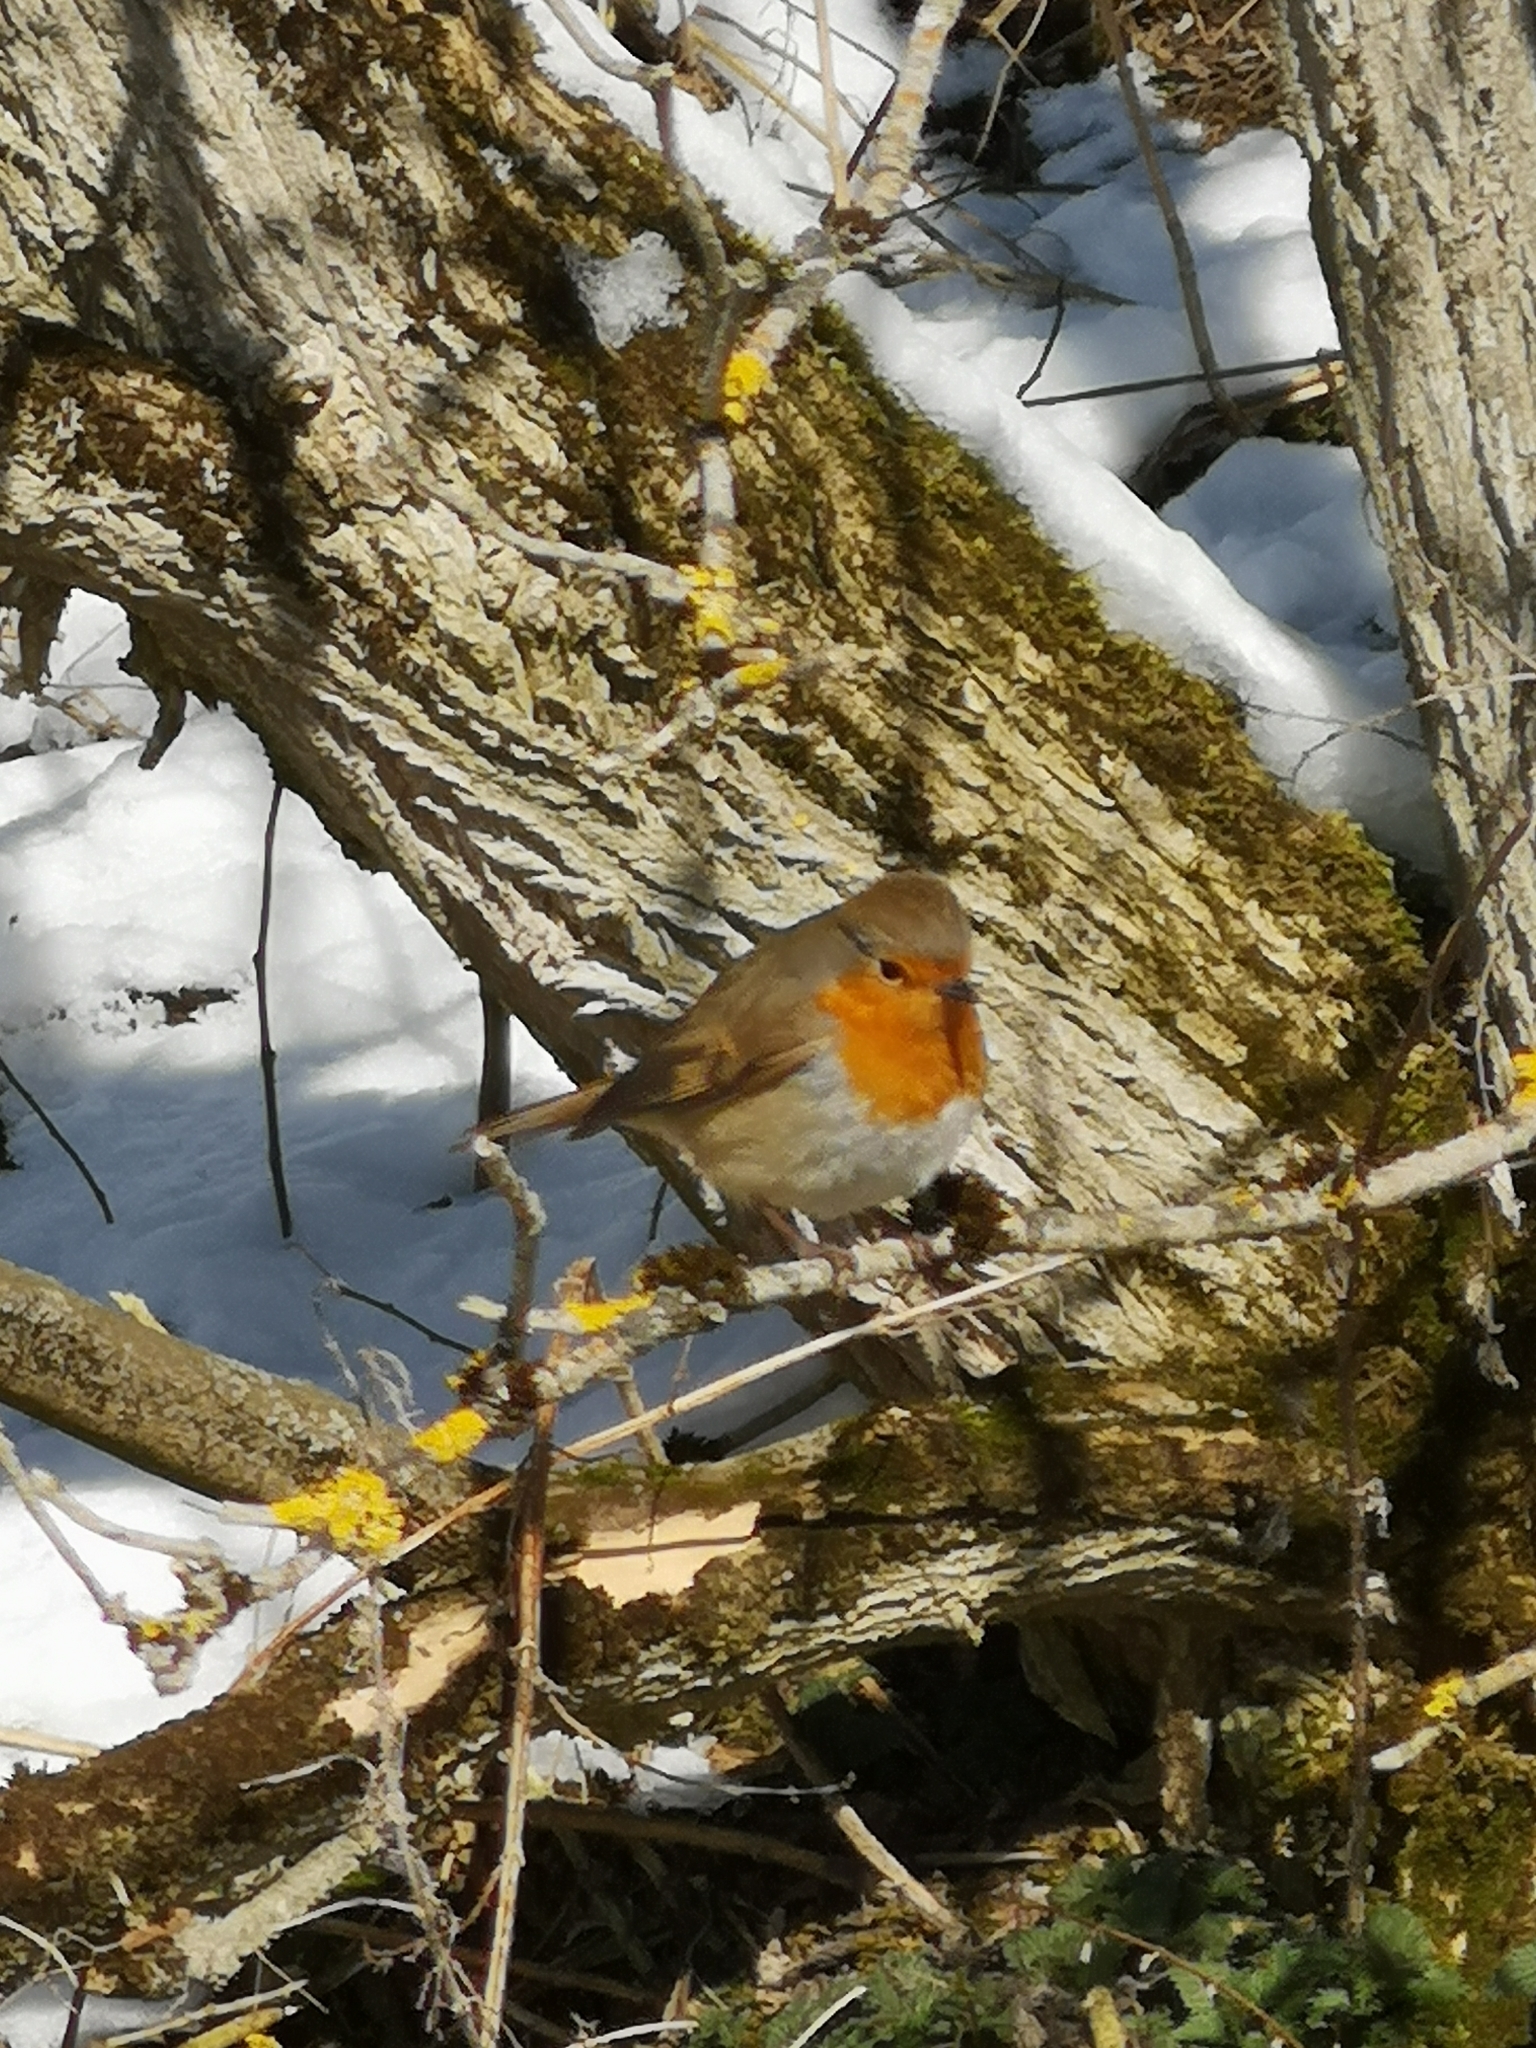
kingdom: Animalia
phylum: Chordata
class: Aves
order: Passeriformes
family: Muscicapidae
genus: Erithacus
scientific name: Erithacus rubecula
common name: European robin
